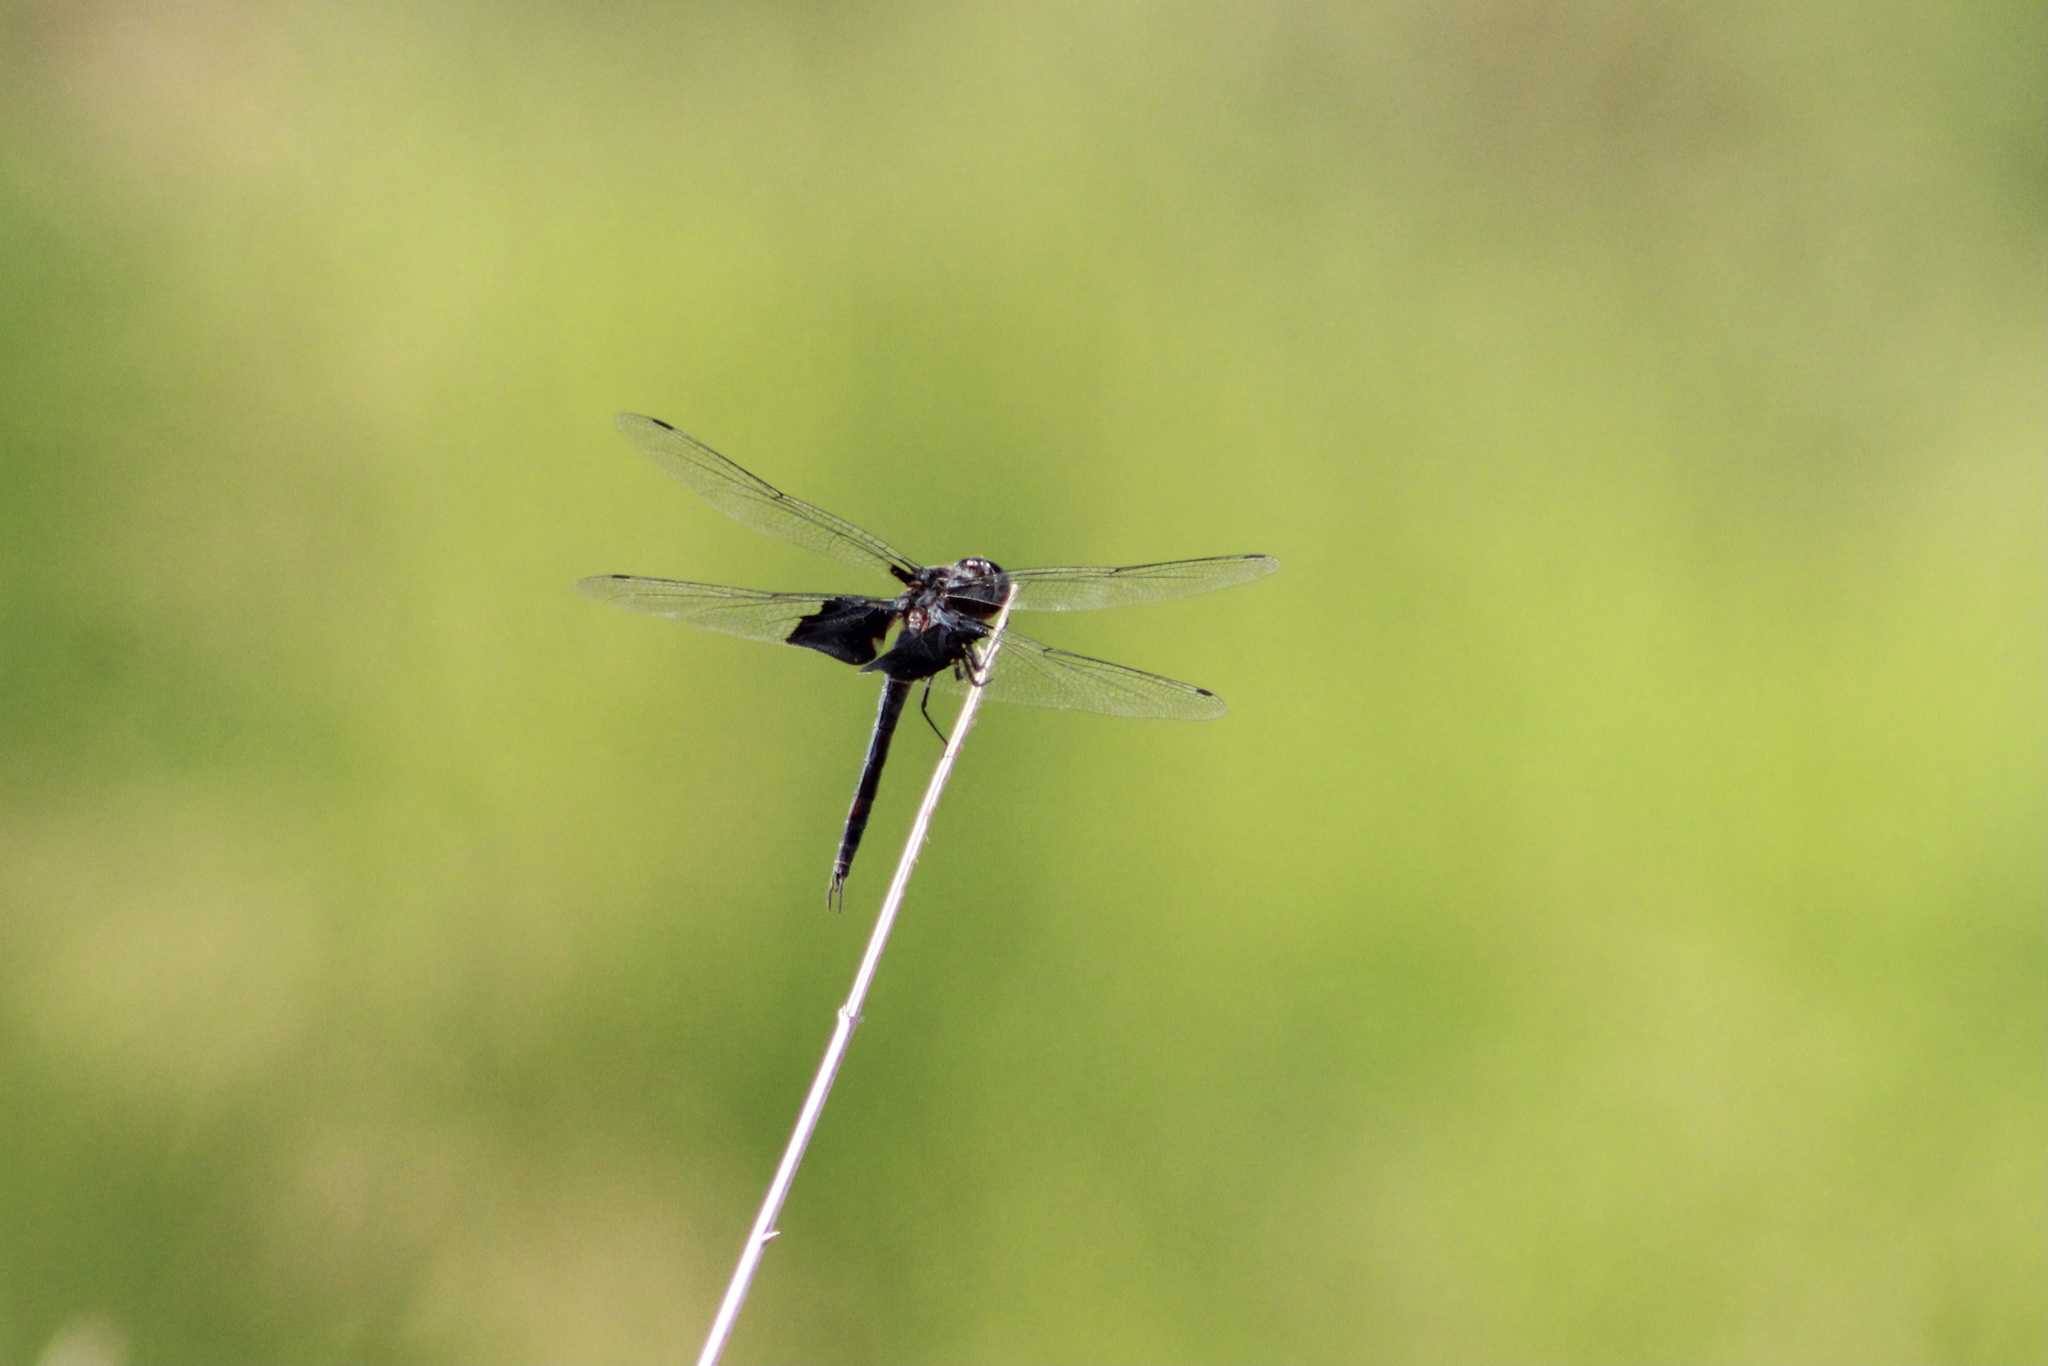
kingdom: Animalia
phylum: Arthropoda
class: Insecta
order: Odonata
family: Libellulidae
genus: Tramea
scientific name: Tramea lacerata
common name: Black saddlebags
